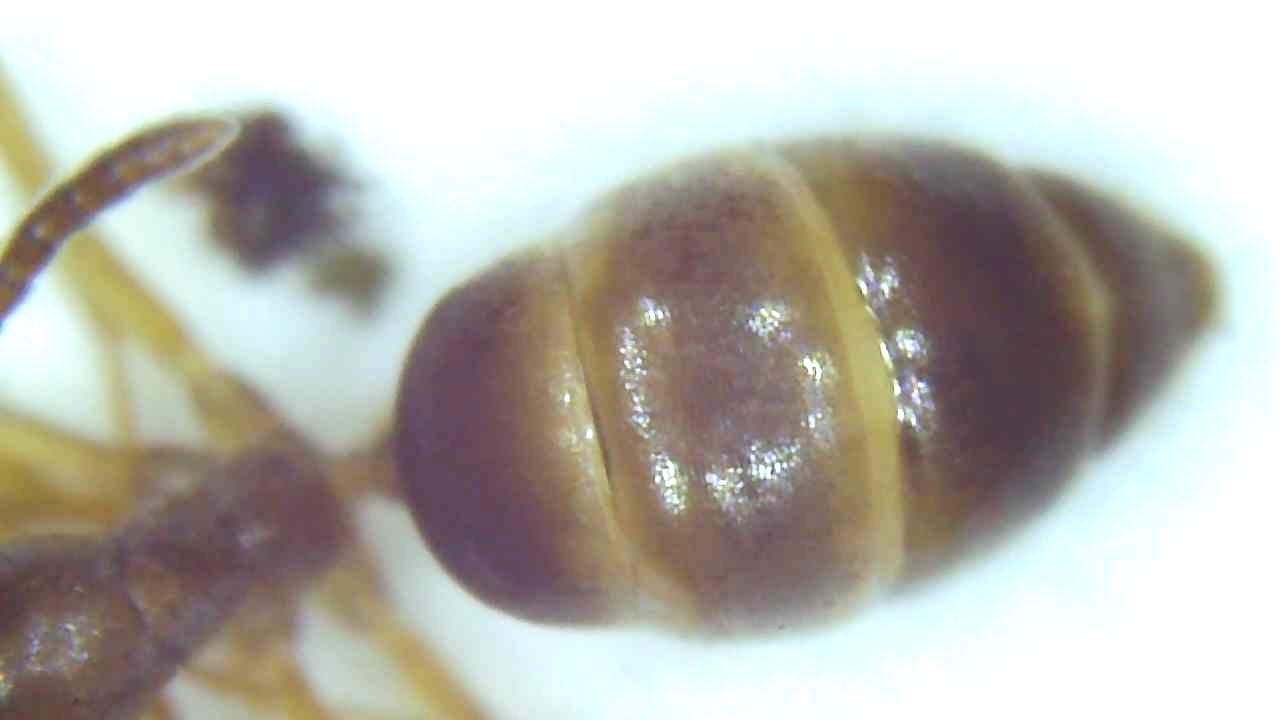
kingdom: Animalia
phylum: Arthropoda
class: Insecta
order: Hymenoptera
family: Formicidae
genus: Tapinoma
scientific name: Tapinoma sessile
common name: Odorous house ant
